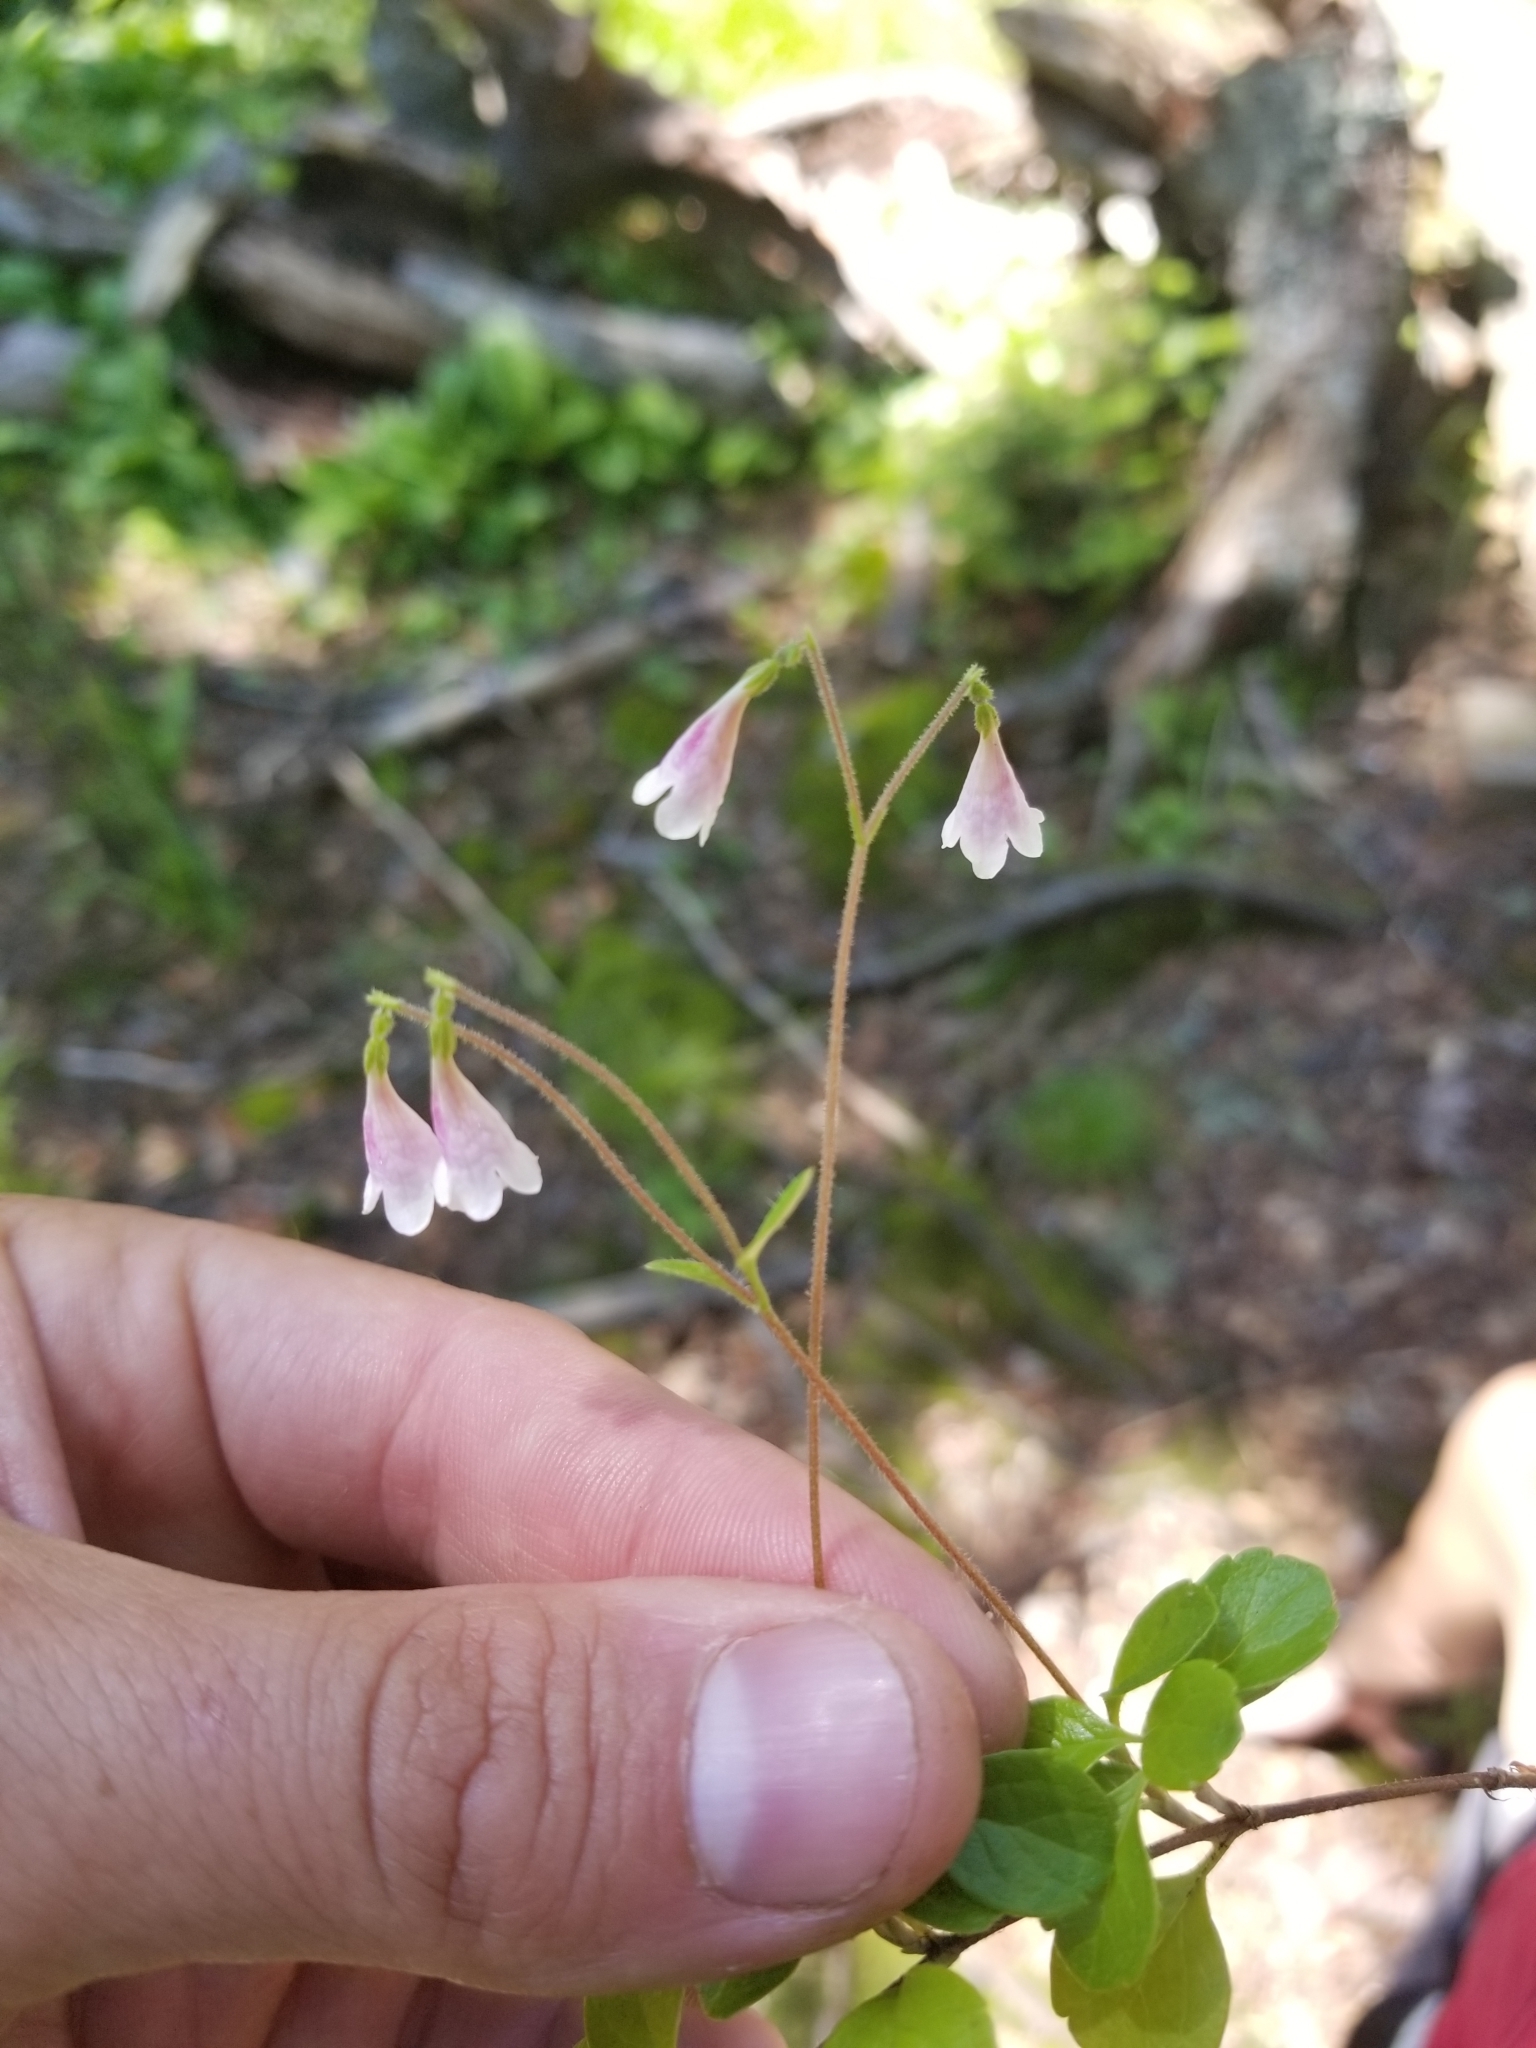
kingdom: Plantae
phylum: Tracheophyta
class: Magnoliopsida
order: Dipsacales
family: Caprifoliaceae
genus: Linnaea
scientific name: Linnaea borealis
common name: Twinflower
